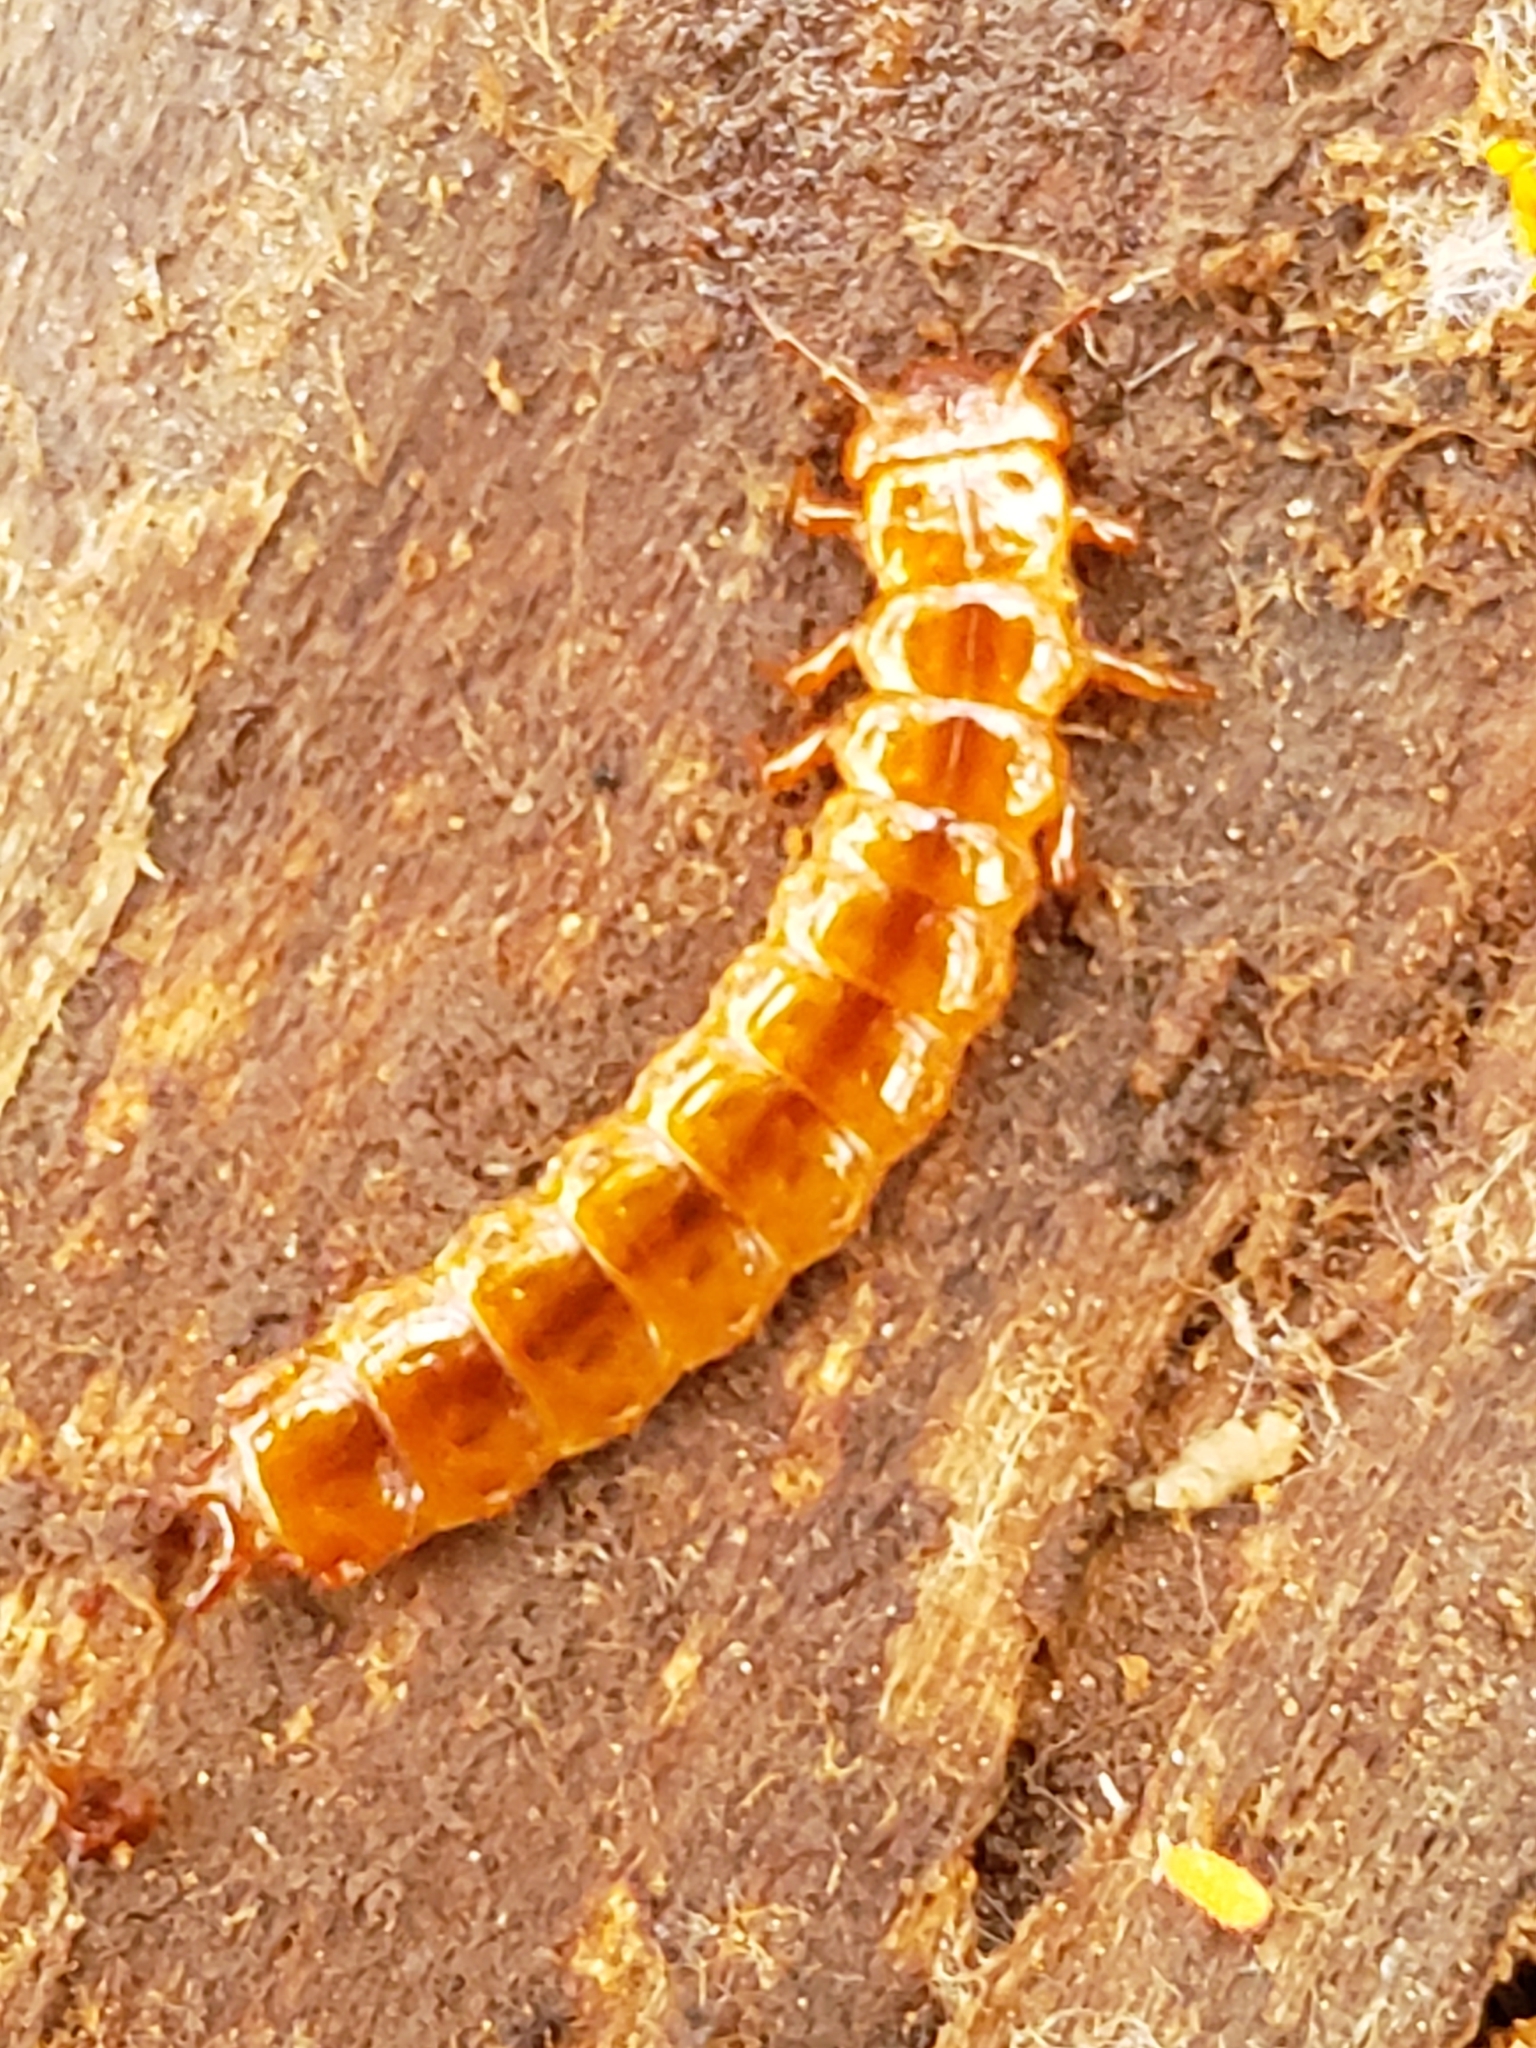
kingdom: Animalia
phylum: Arthropoda
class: Insecta
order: Coleoptera
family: Cucujidae
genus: Cucujus
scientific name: Cucujus clavipes
